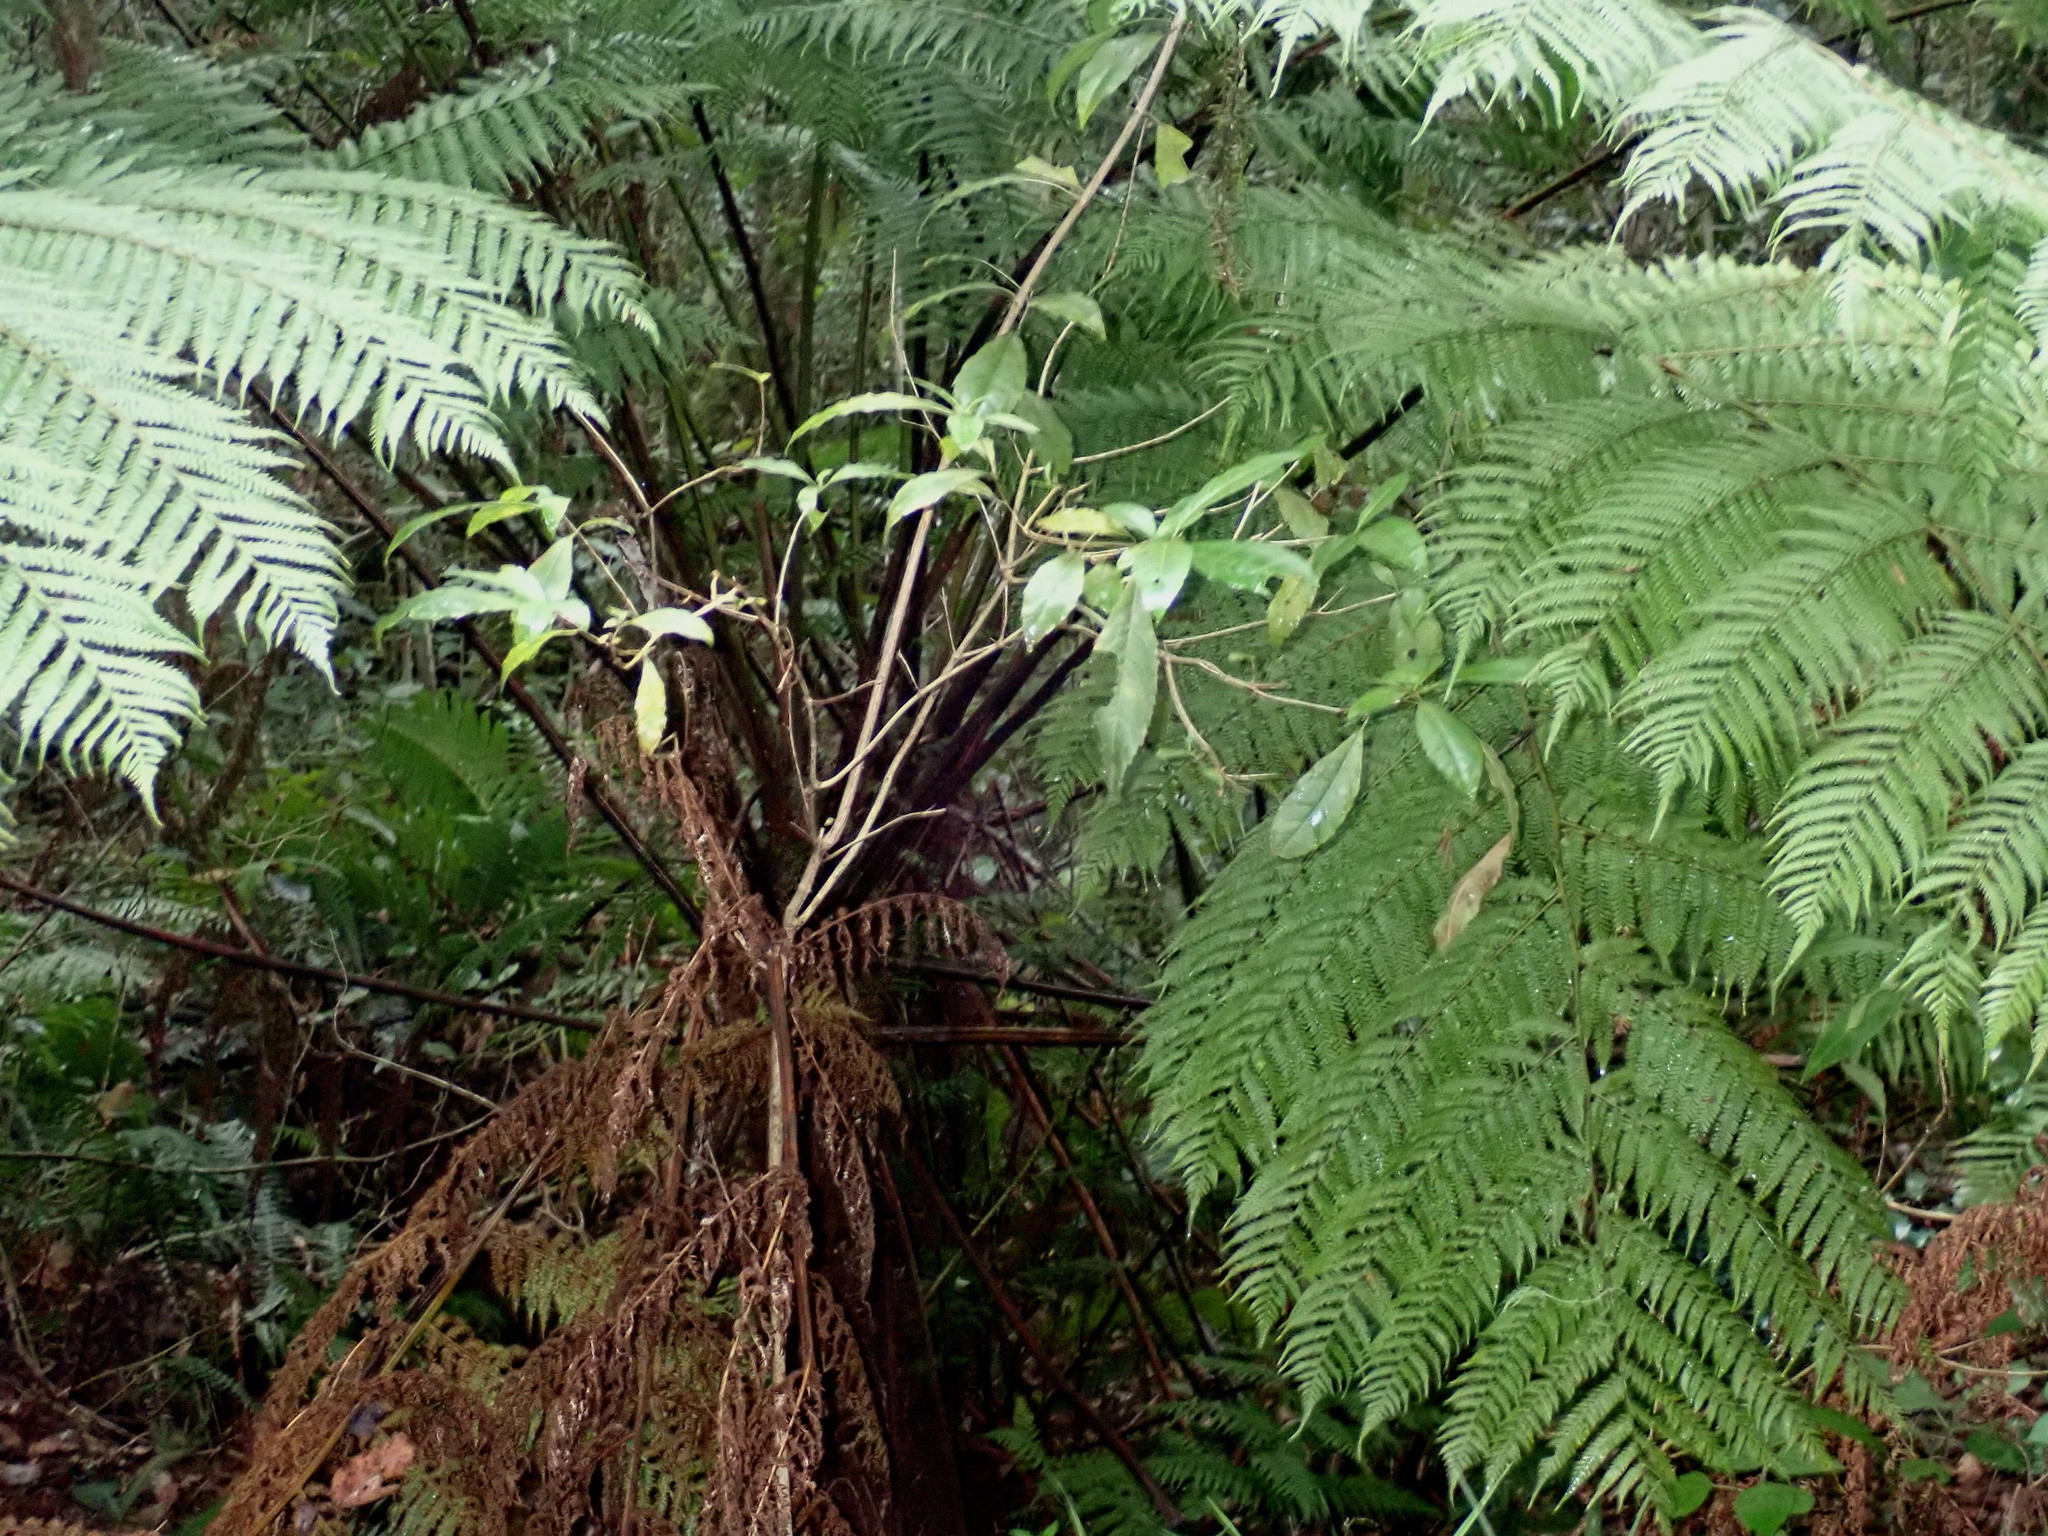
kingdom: Plantae
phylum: Tracheophyta
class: Polypodiopsida
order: Cyatheales
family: Cyatheaceae
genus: Gymnosphaera
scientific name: Gymnosphaera capensis
